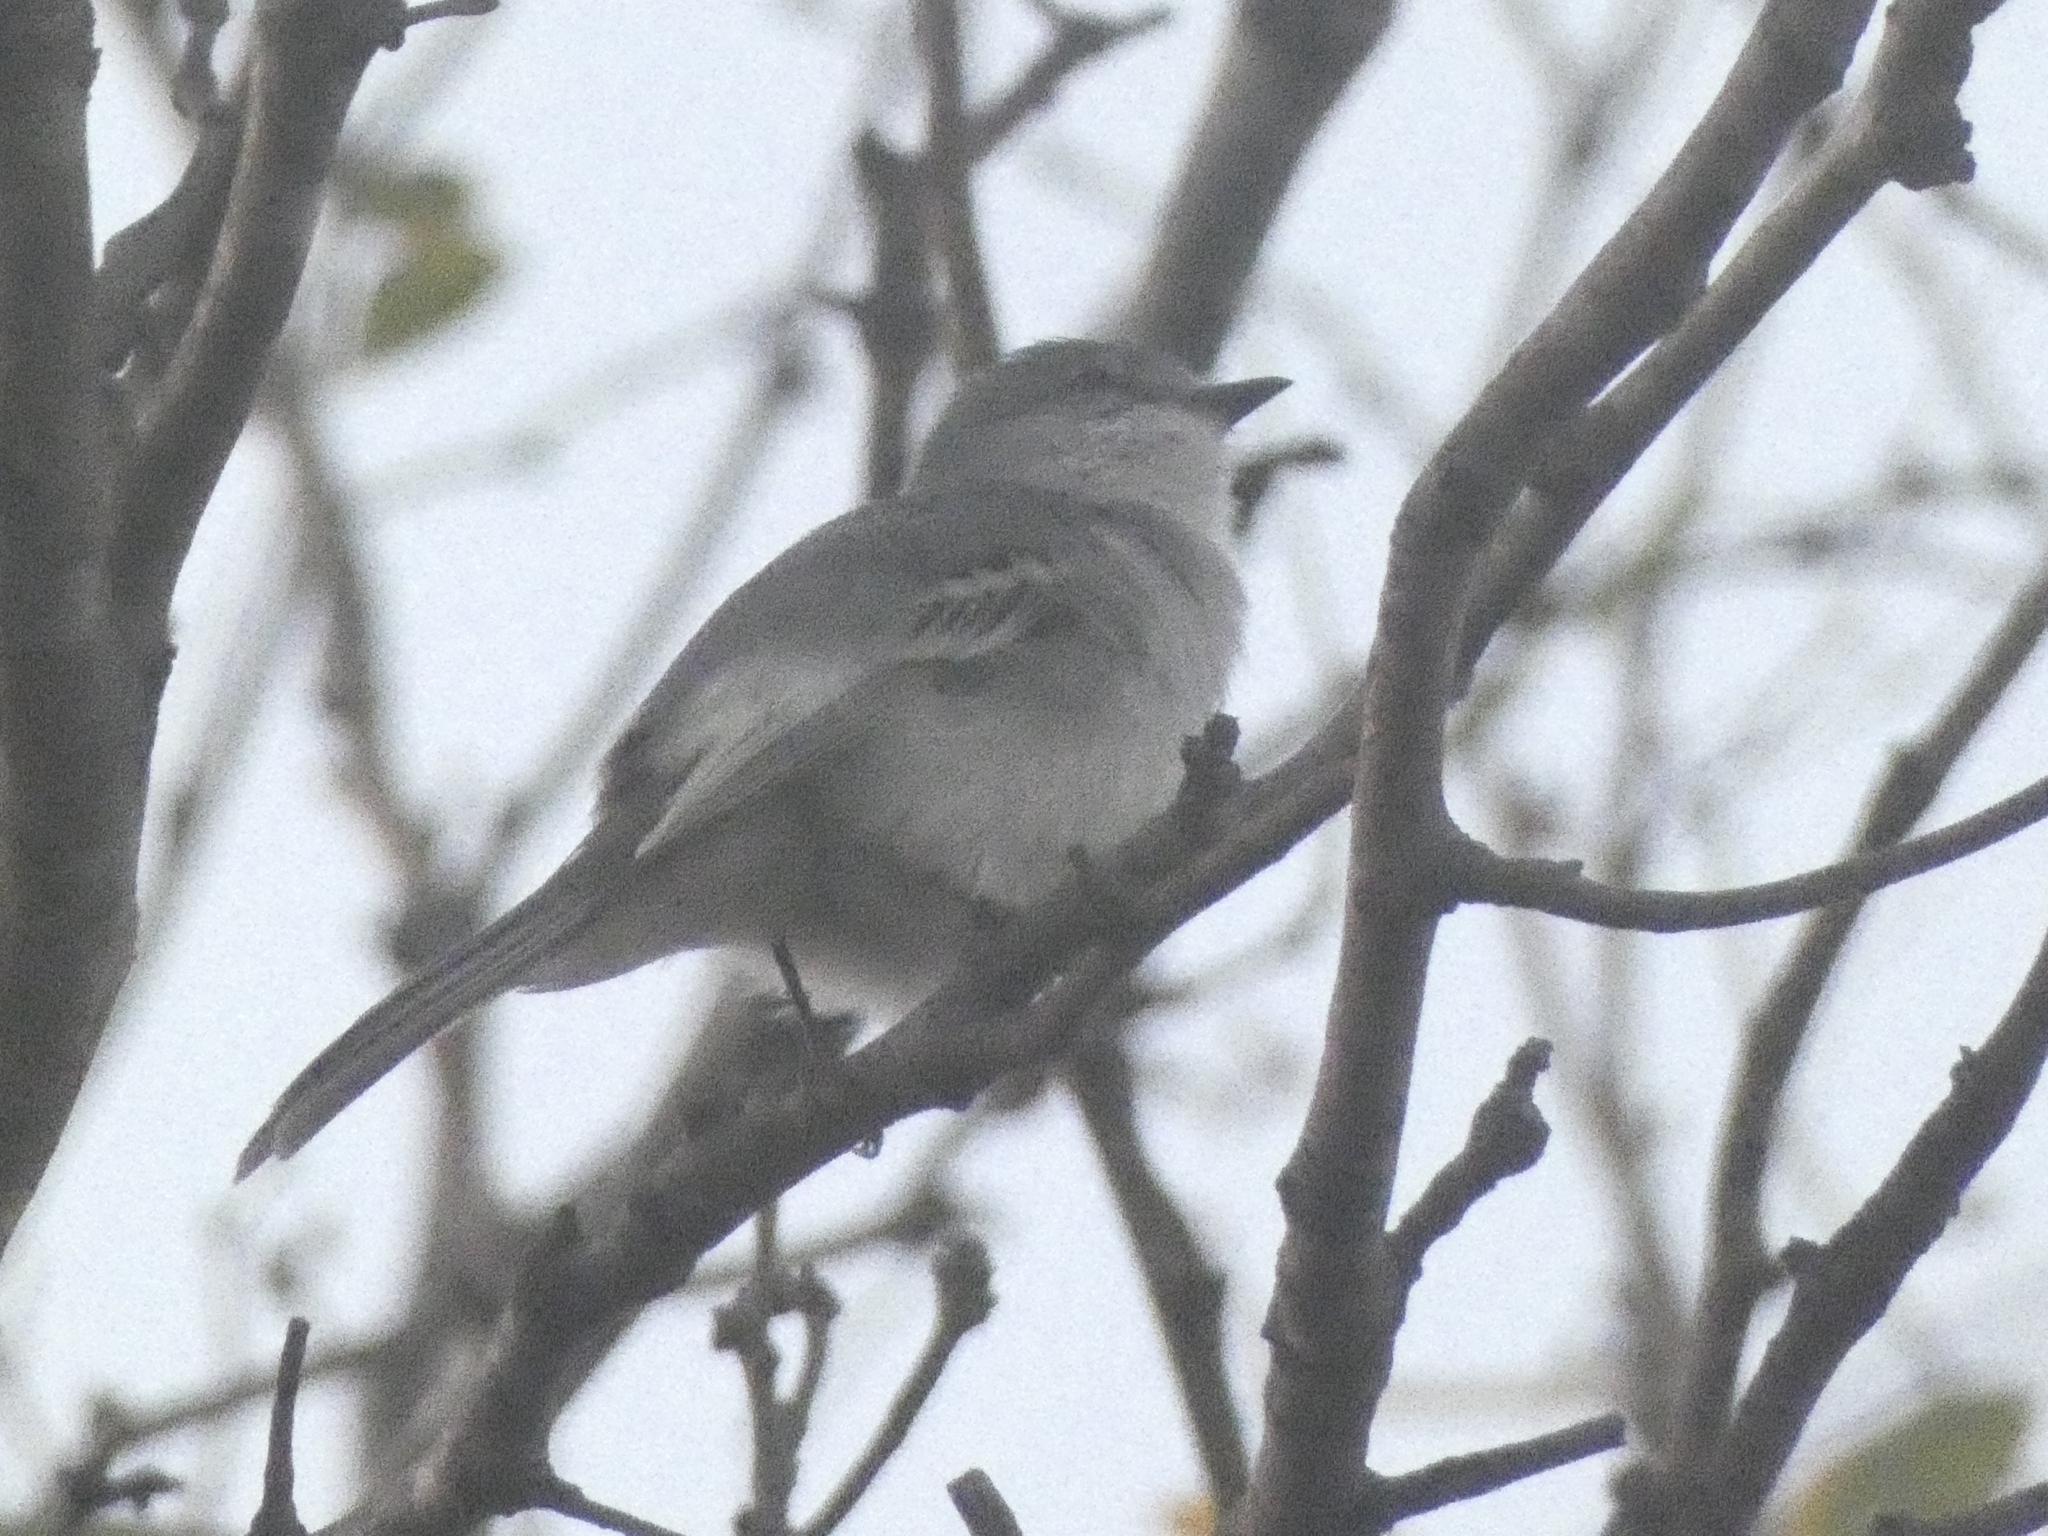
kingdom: Animalia
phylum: Chordata
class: Aves
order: Passeriformes
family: Tyrannidae
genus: Suiriri
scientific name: Suiriri suiriri
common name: Suiriri flycatcher
